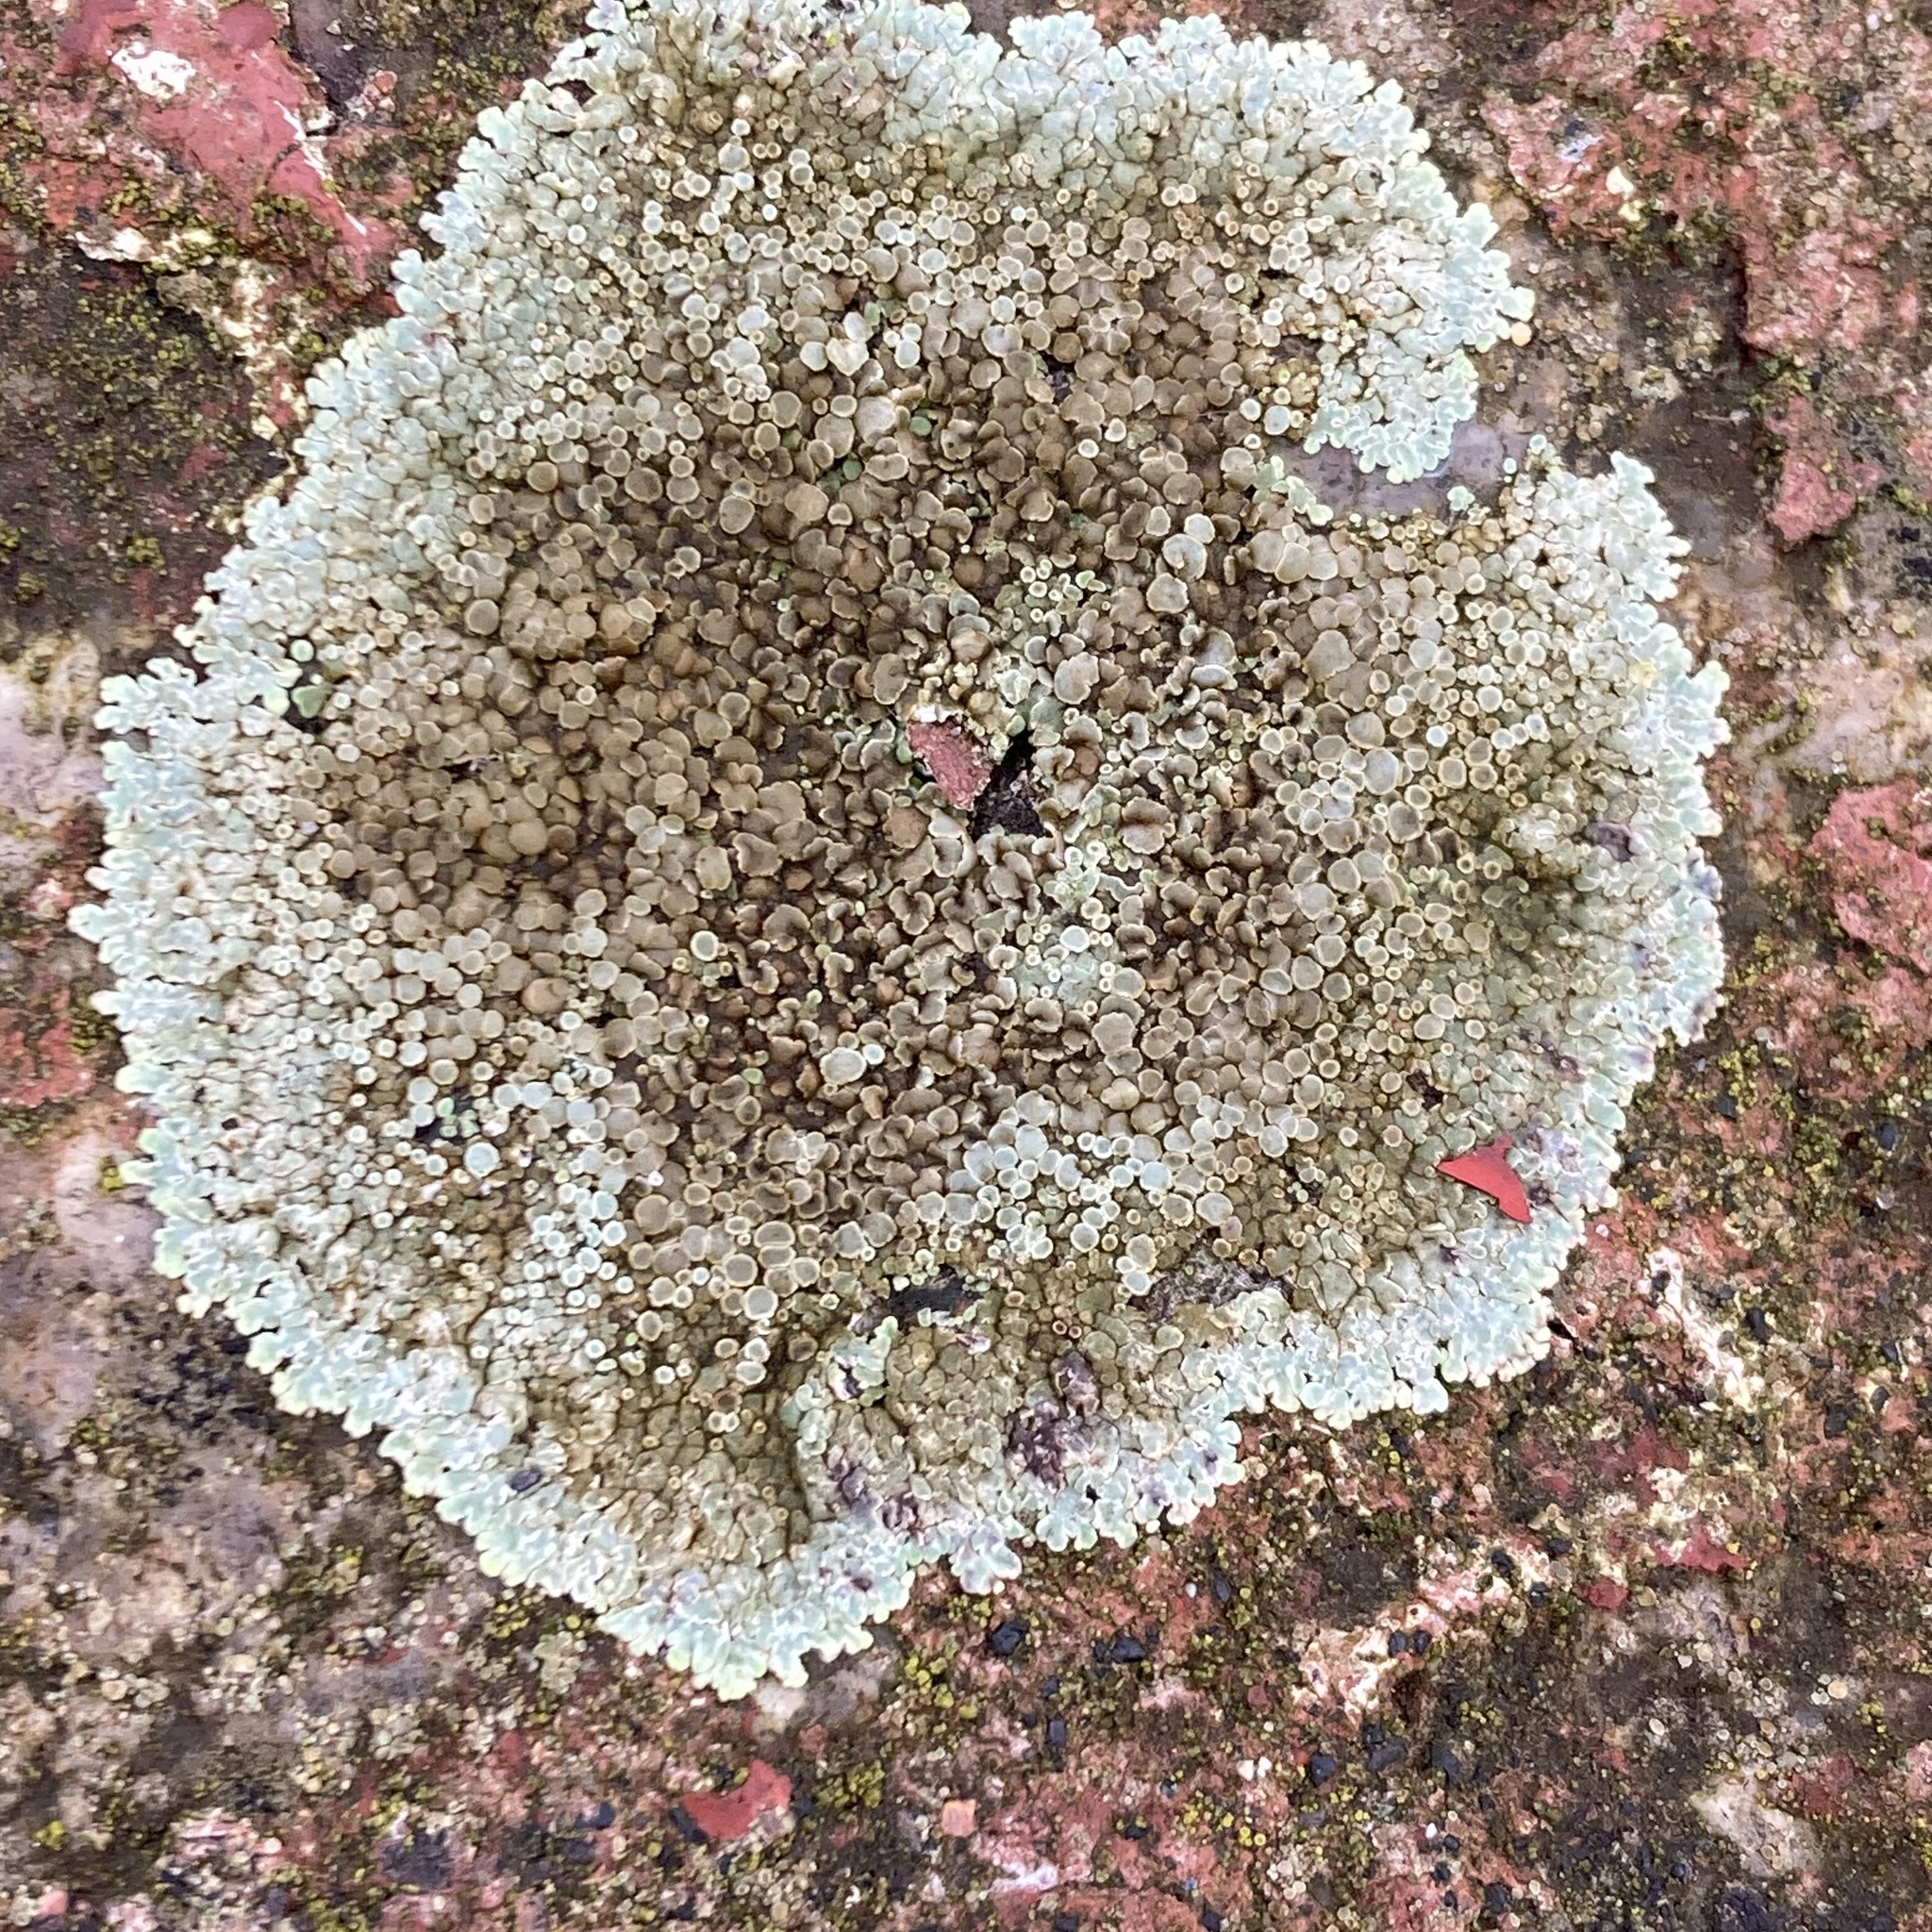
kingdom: Fungi
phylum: Ascomycota
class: Lecanoromycetes
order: Lecanorales
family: Lecanoraceae
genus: Protoparmeliopsis
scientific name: Protoparmeliopsis muralis
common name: Stonewall rim lichen
